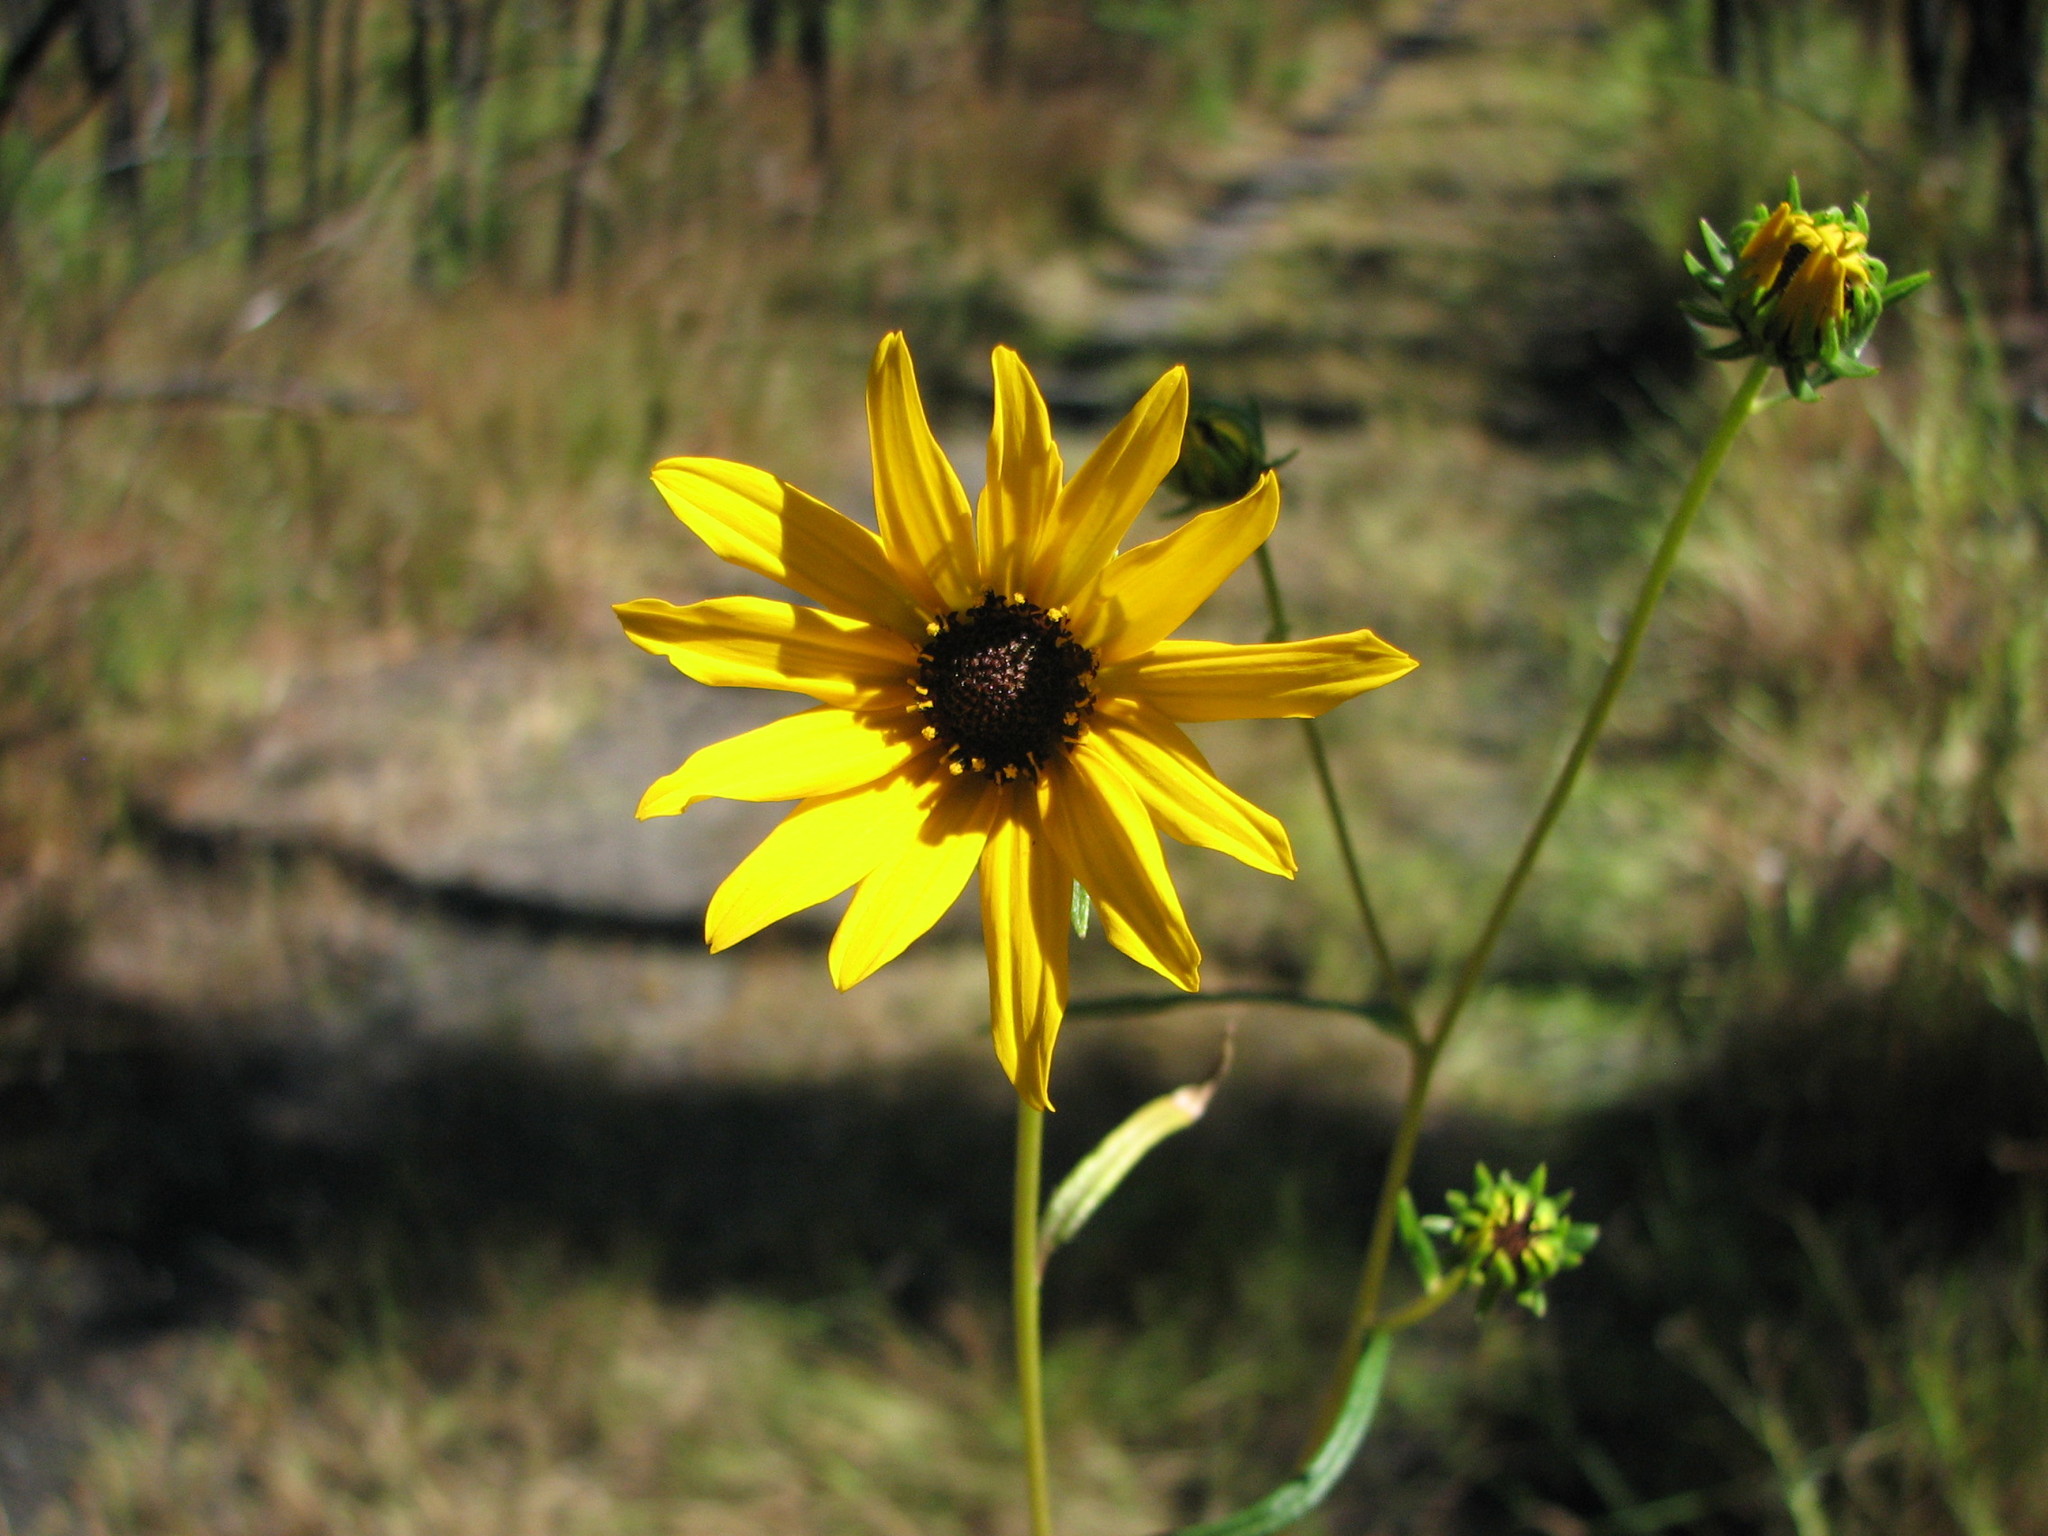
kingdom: Plantae
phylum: Tracheophyta
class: Magnoliopsida
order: Asterales
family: Asteraceae
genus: Helianthus
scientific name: Helianthus angustifolius
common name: Swamp sunflower
